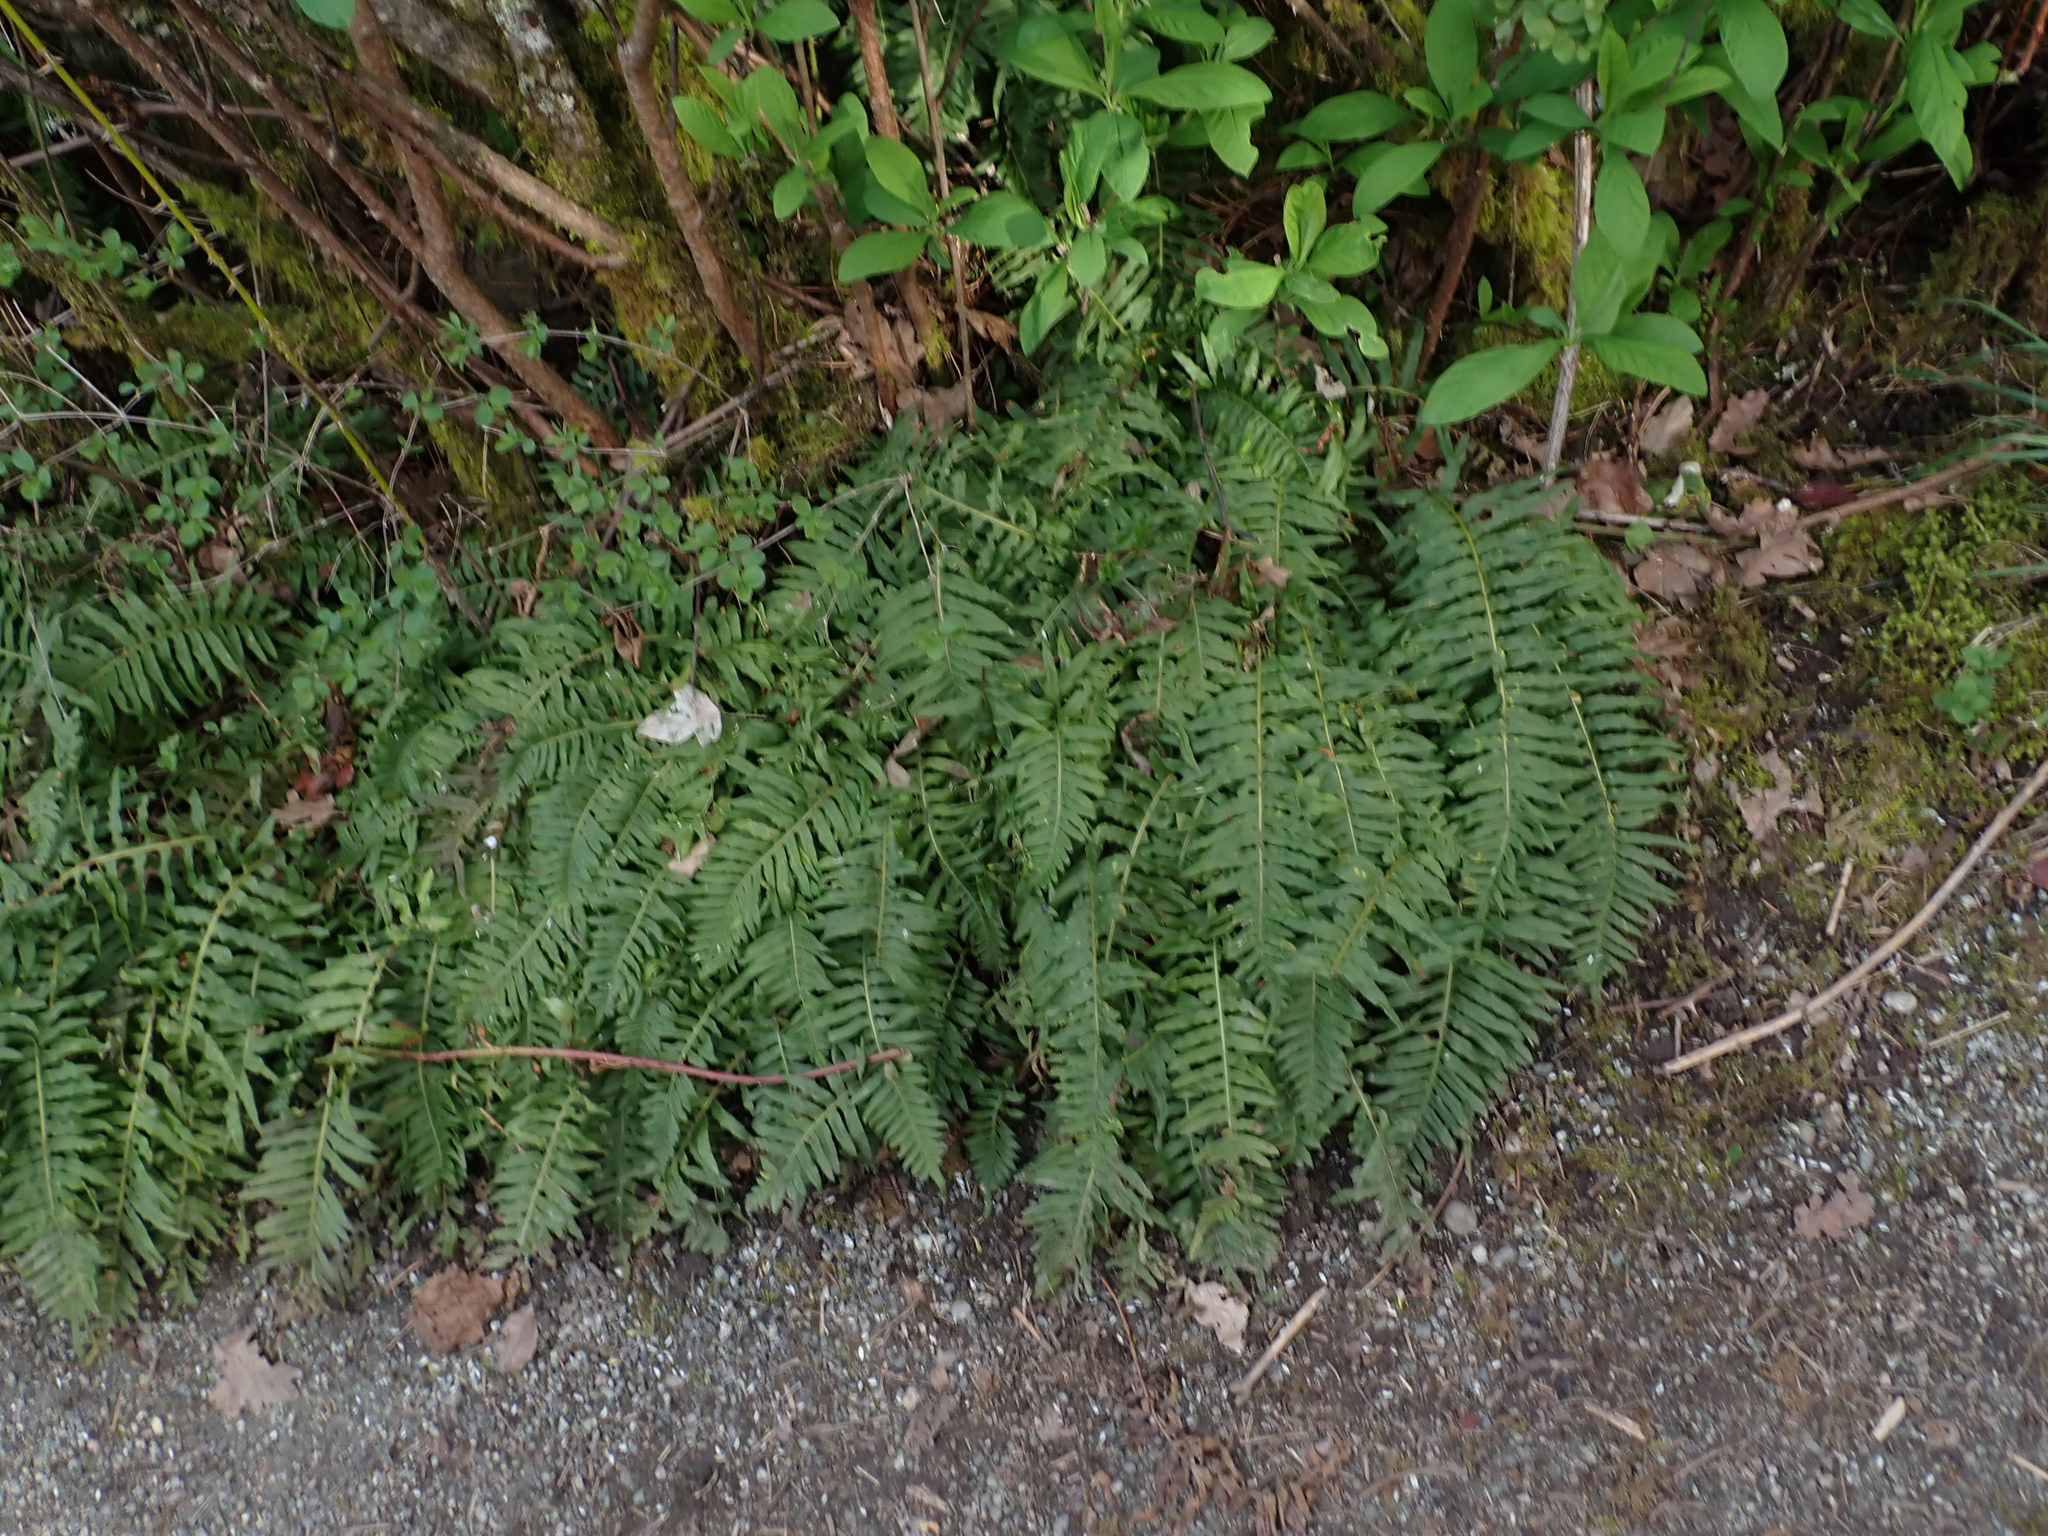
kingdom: Plantae
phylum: Tracheophyta
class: Polypodiopsida
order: Polypodiales
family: Polypodiaceae
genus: Polypodium
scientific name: Polypodium glycyrrhiza
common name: Licorice fern
